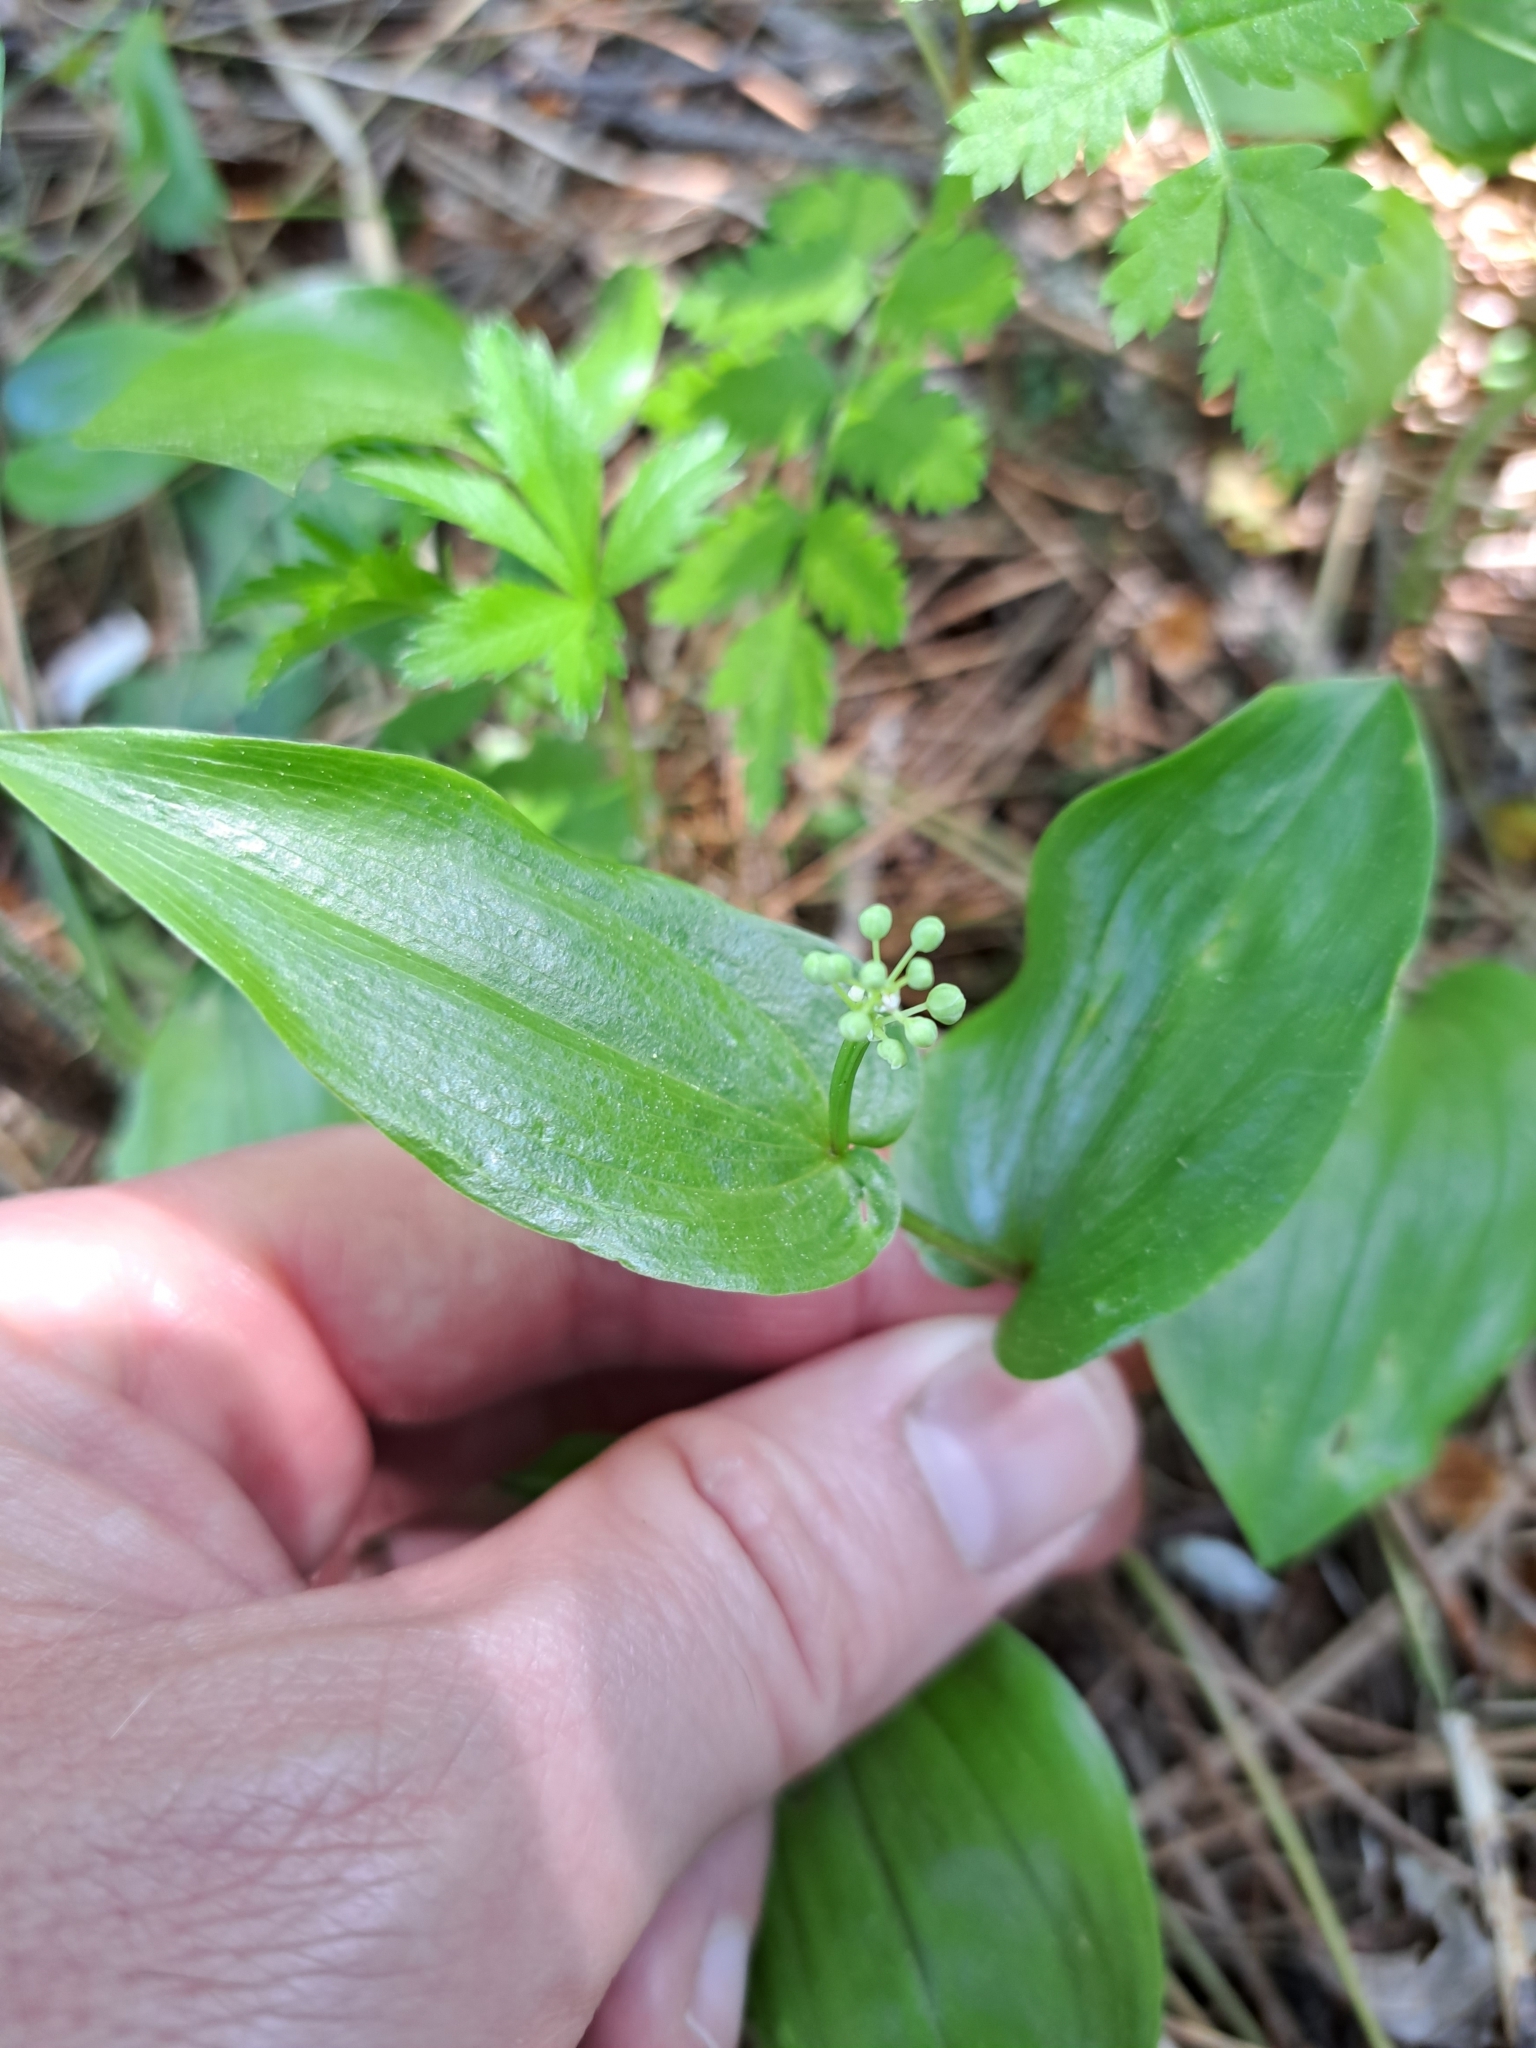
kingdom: Plantae
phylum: Tracheophyta
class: Liliopsida
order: Asparagales
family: Asparagaceae
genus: Maianthemum
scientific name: Maianthemum canadense
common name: False lily-of-the-valley
